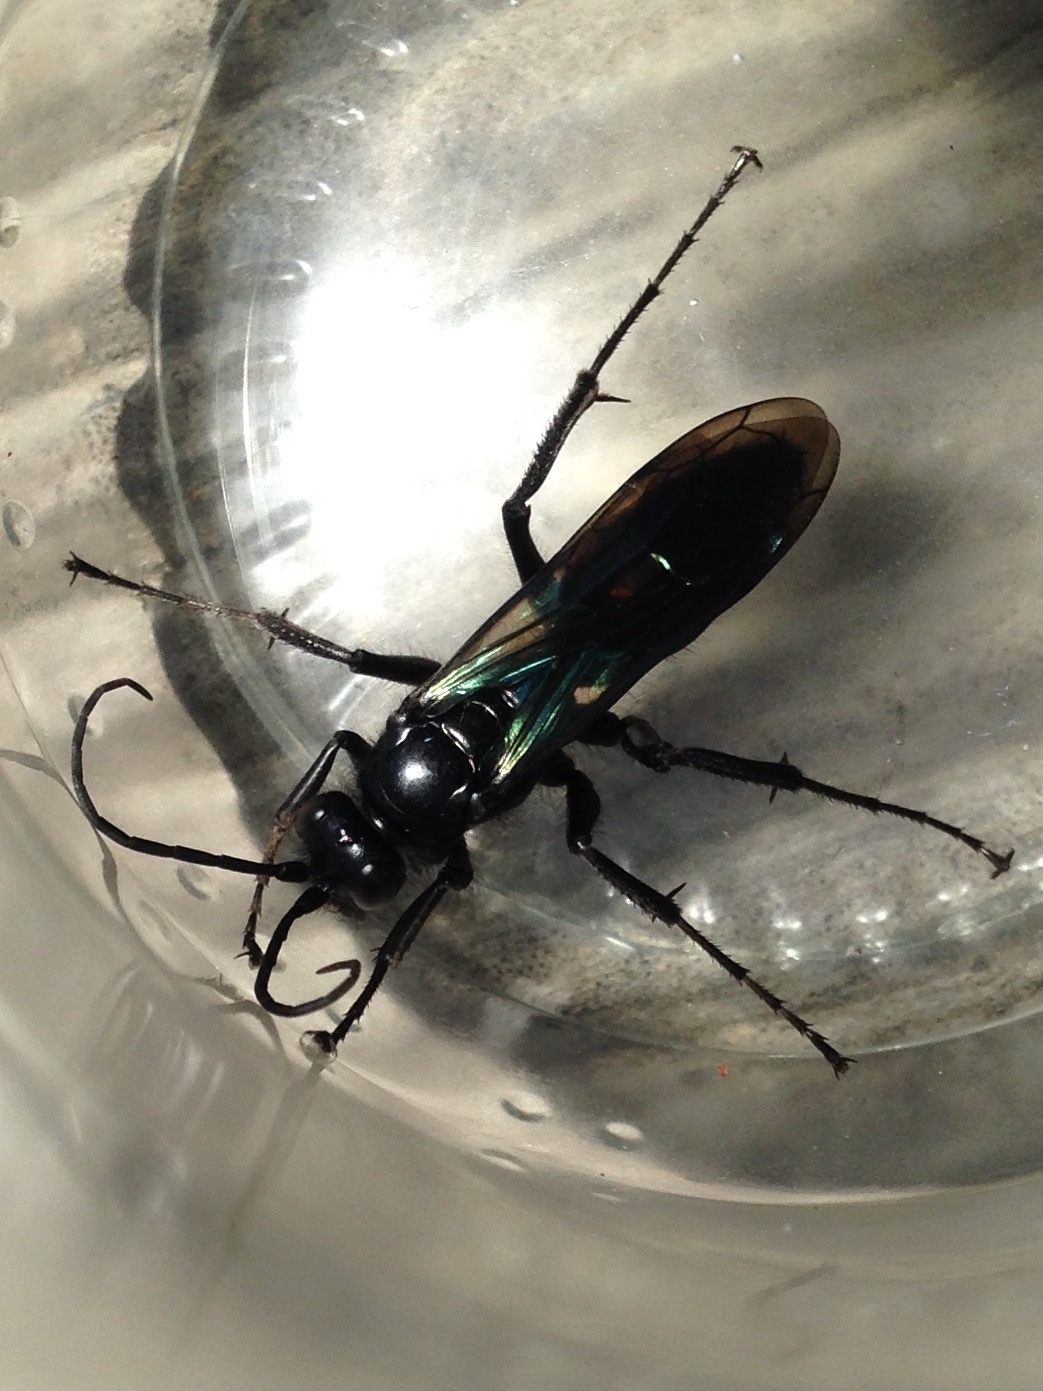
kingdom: Animalia
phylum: Arthropoda
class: Insecta
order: Hymenoptera
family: Pompilidae
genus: Priocnemis
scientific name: Priocnemis monachus
